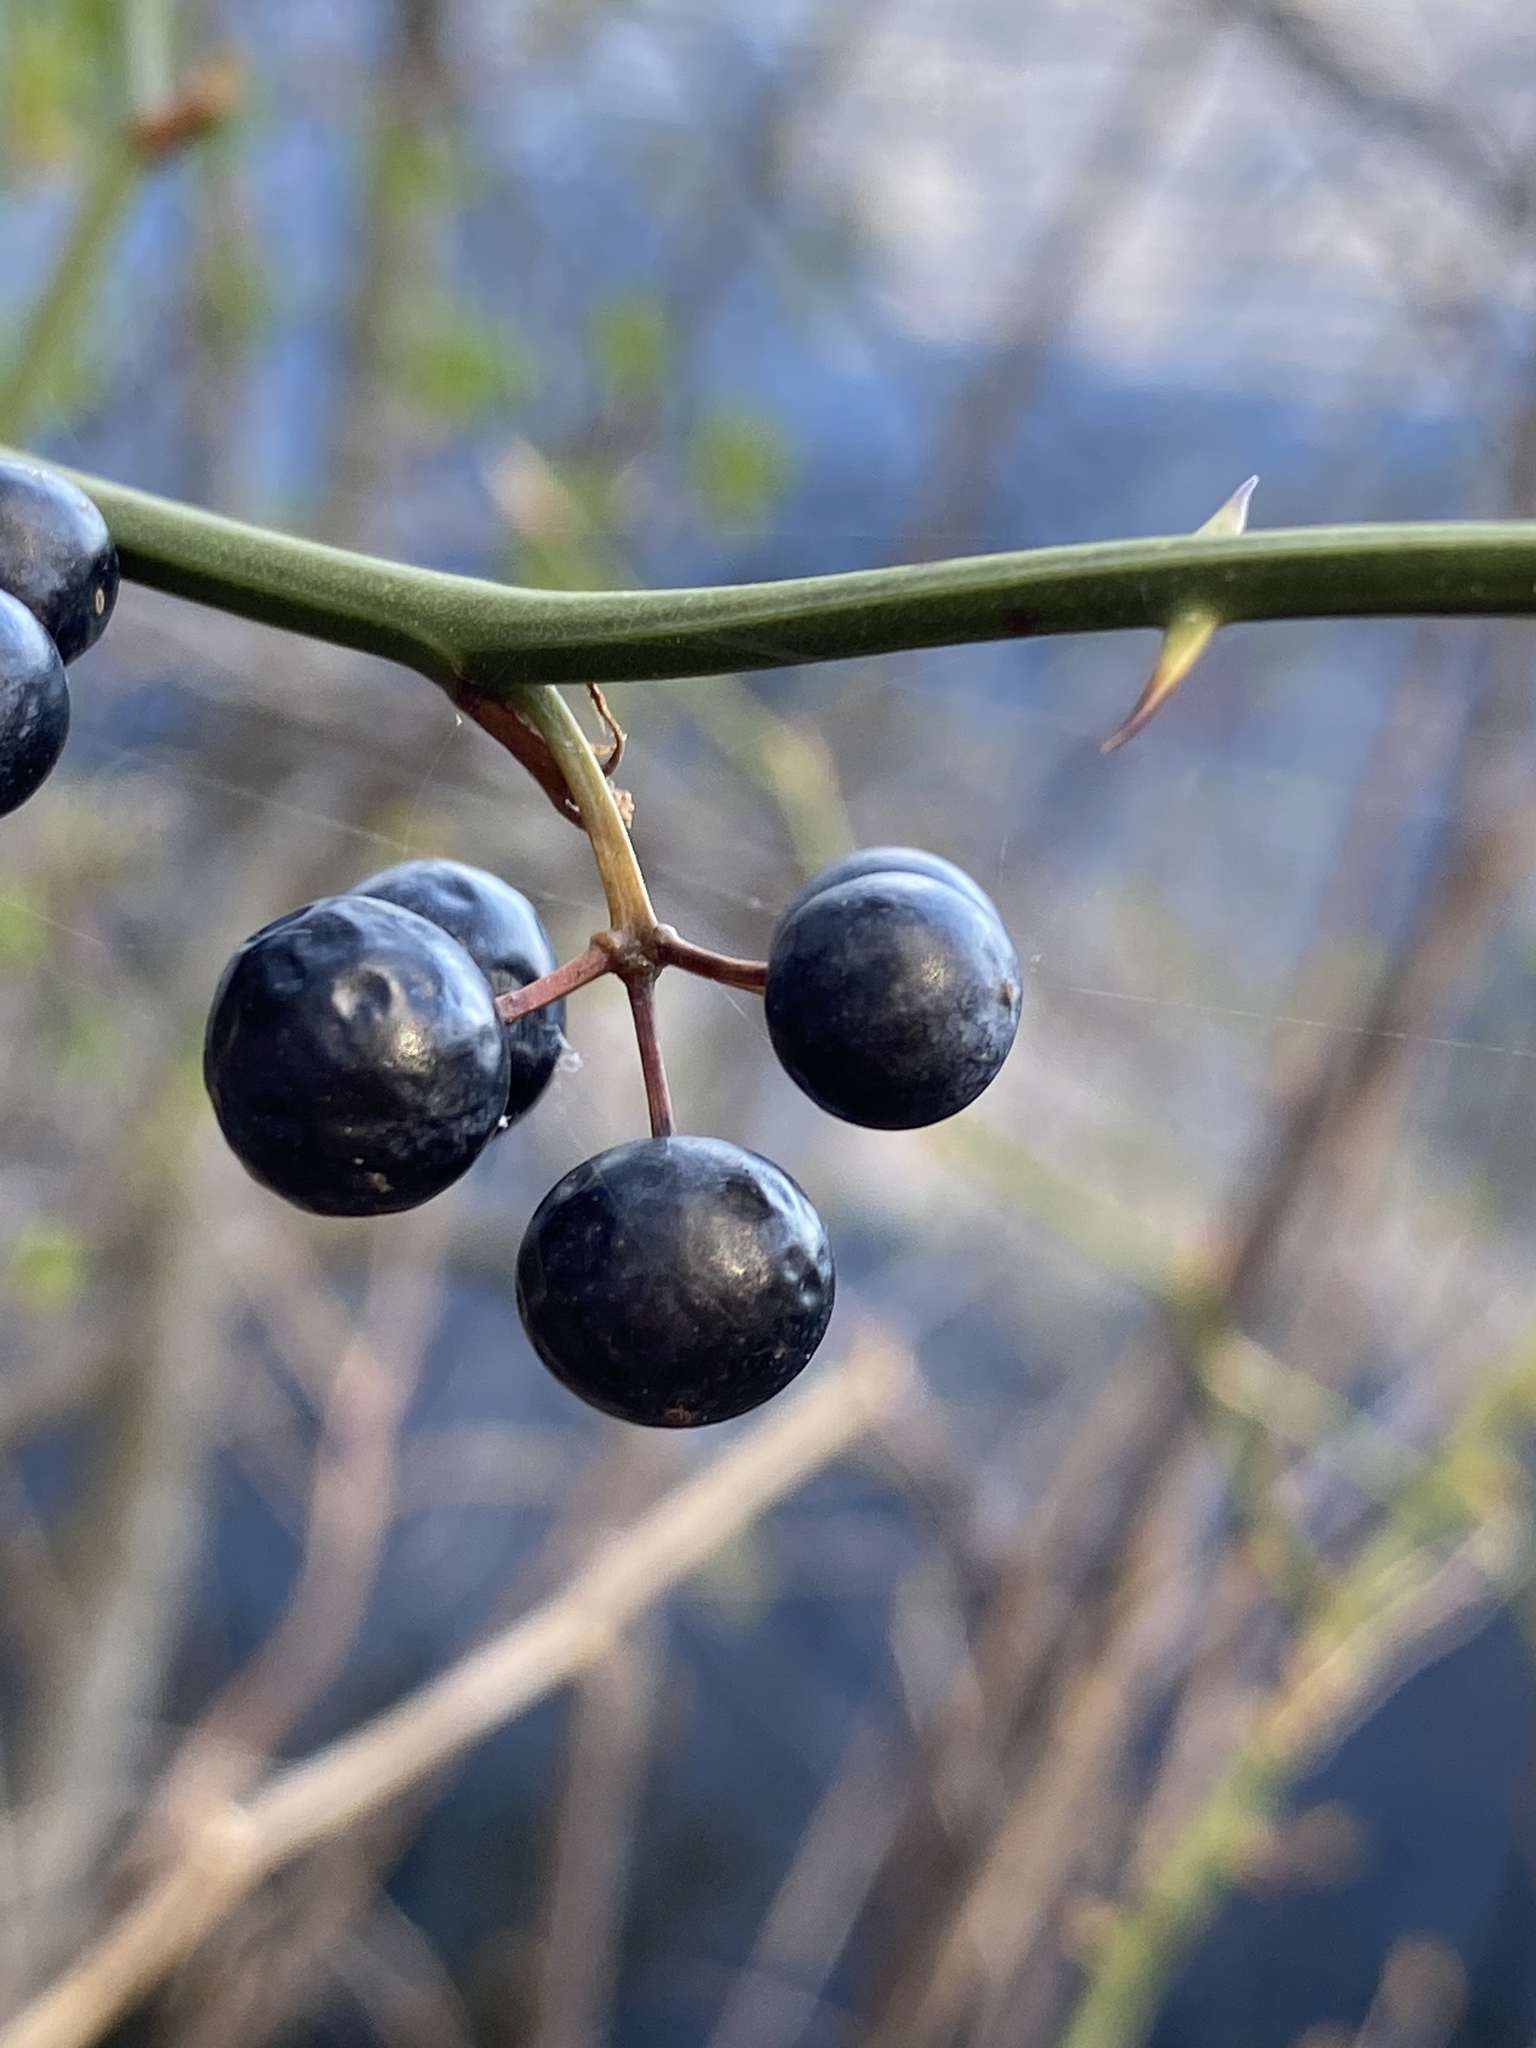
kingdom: Plantae
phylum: Tracheophyta
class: Liliopsida
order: Liliales
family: Smilacaceae
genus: Smilax
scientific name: Smilax rotundifolia
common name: Bullbriar
